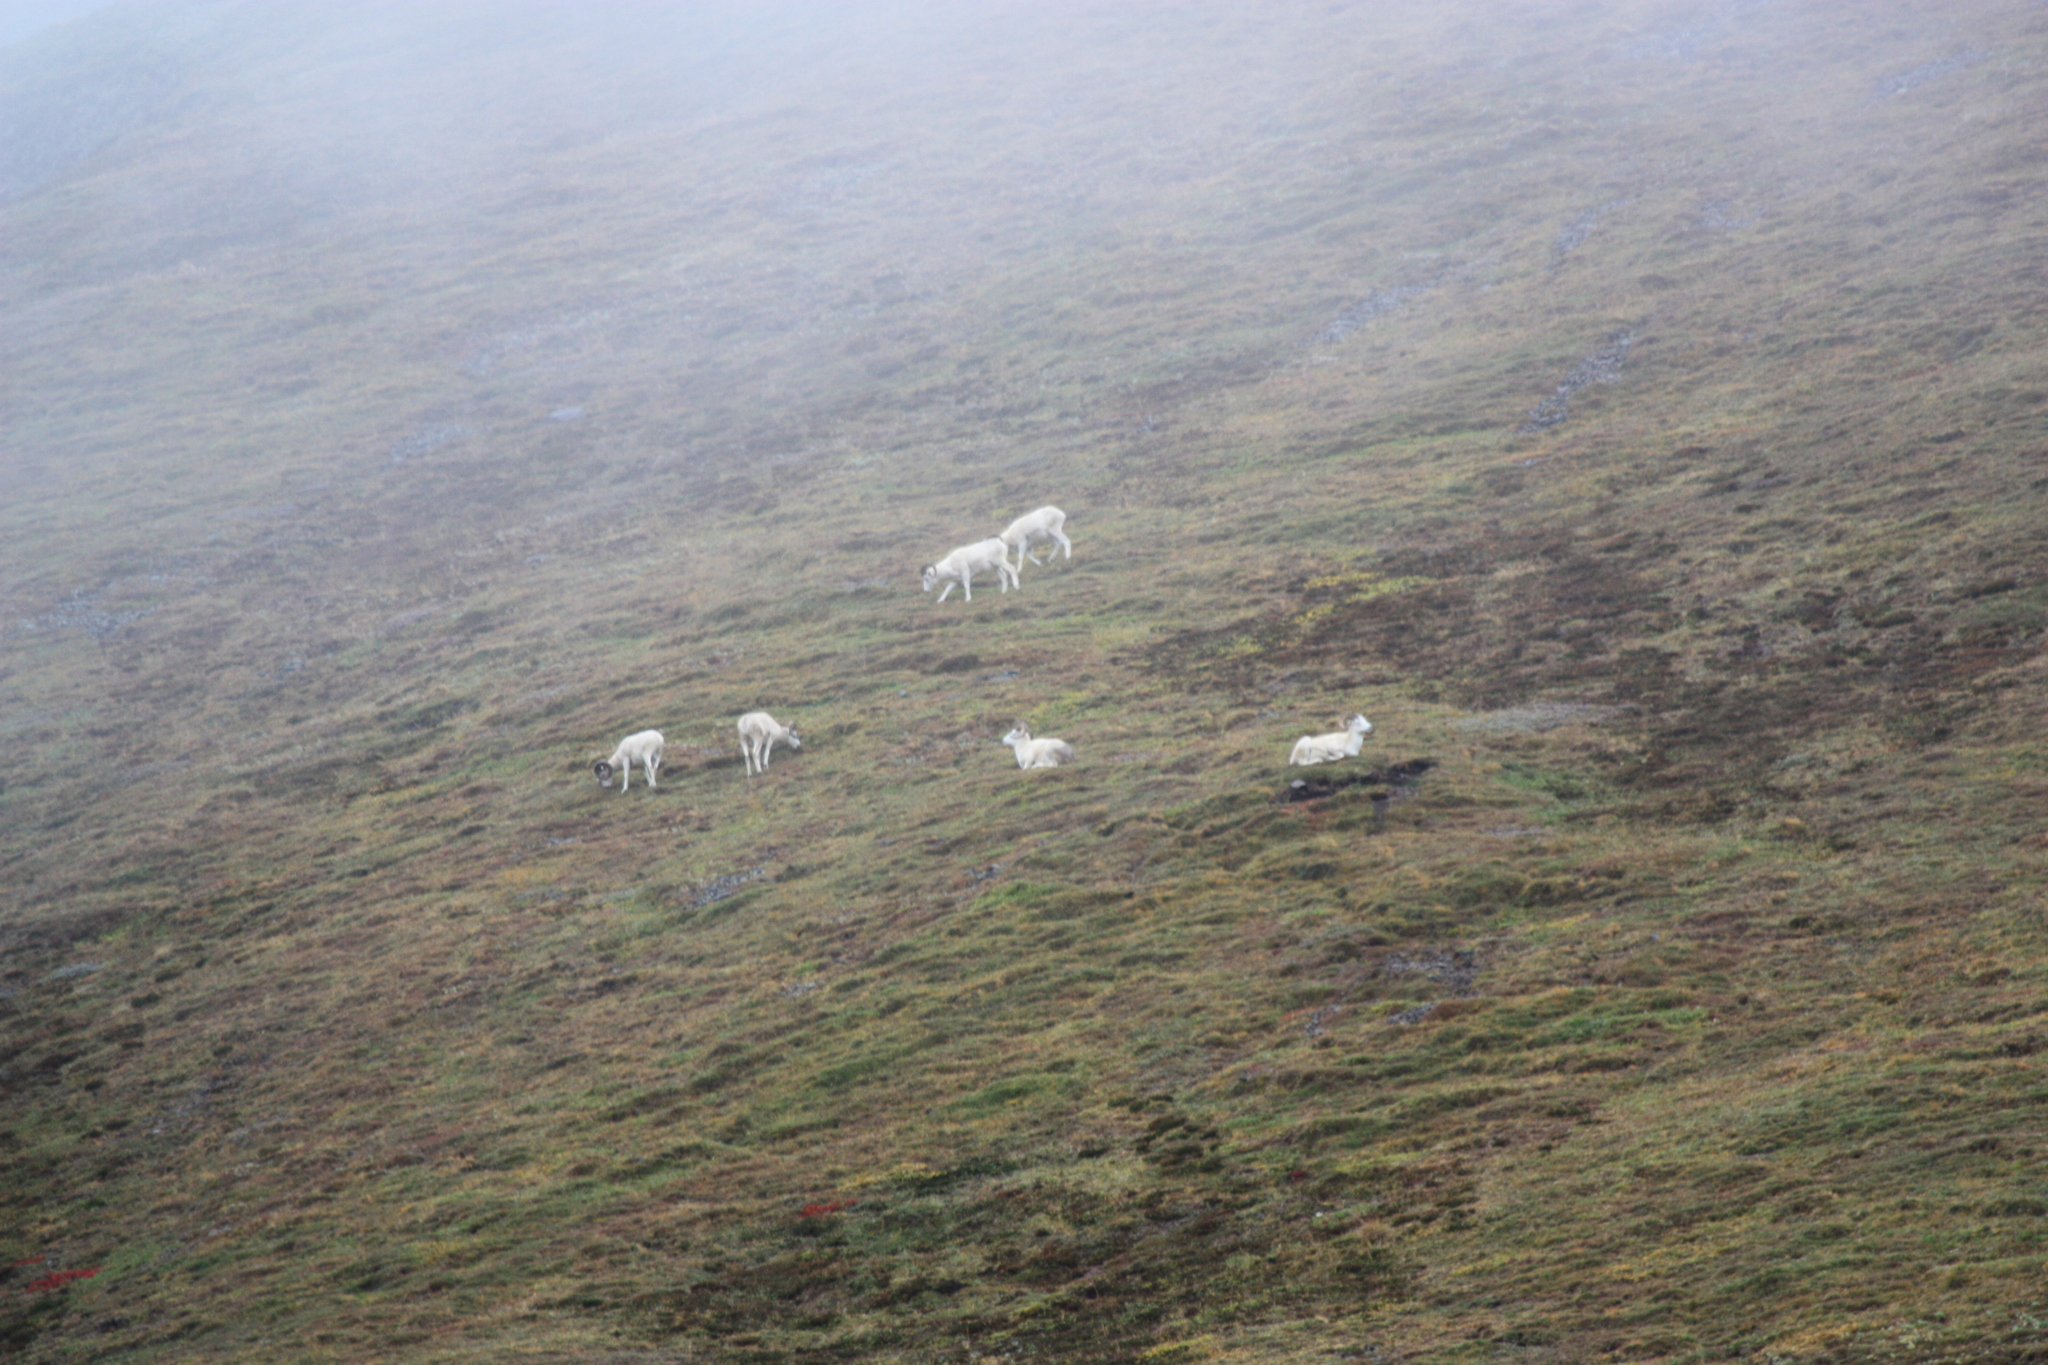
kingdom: Animalia
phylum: Chordata
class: Mammalia
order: Artiodactyla
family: Bovidae
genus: Ovis
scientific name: Ovis dalli
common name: Dall's sheep
